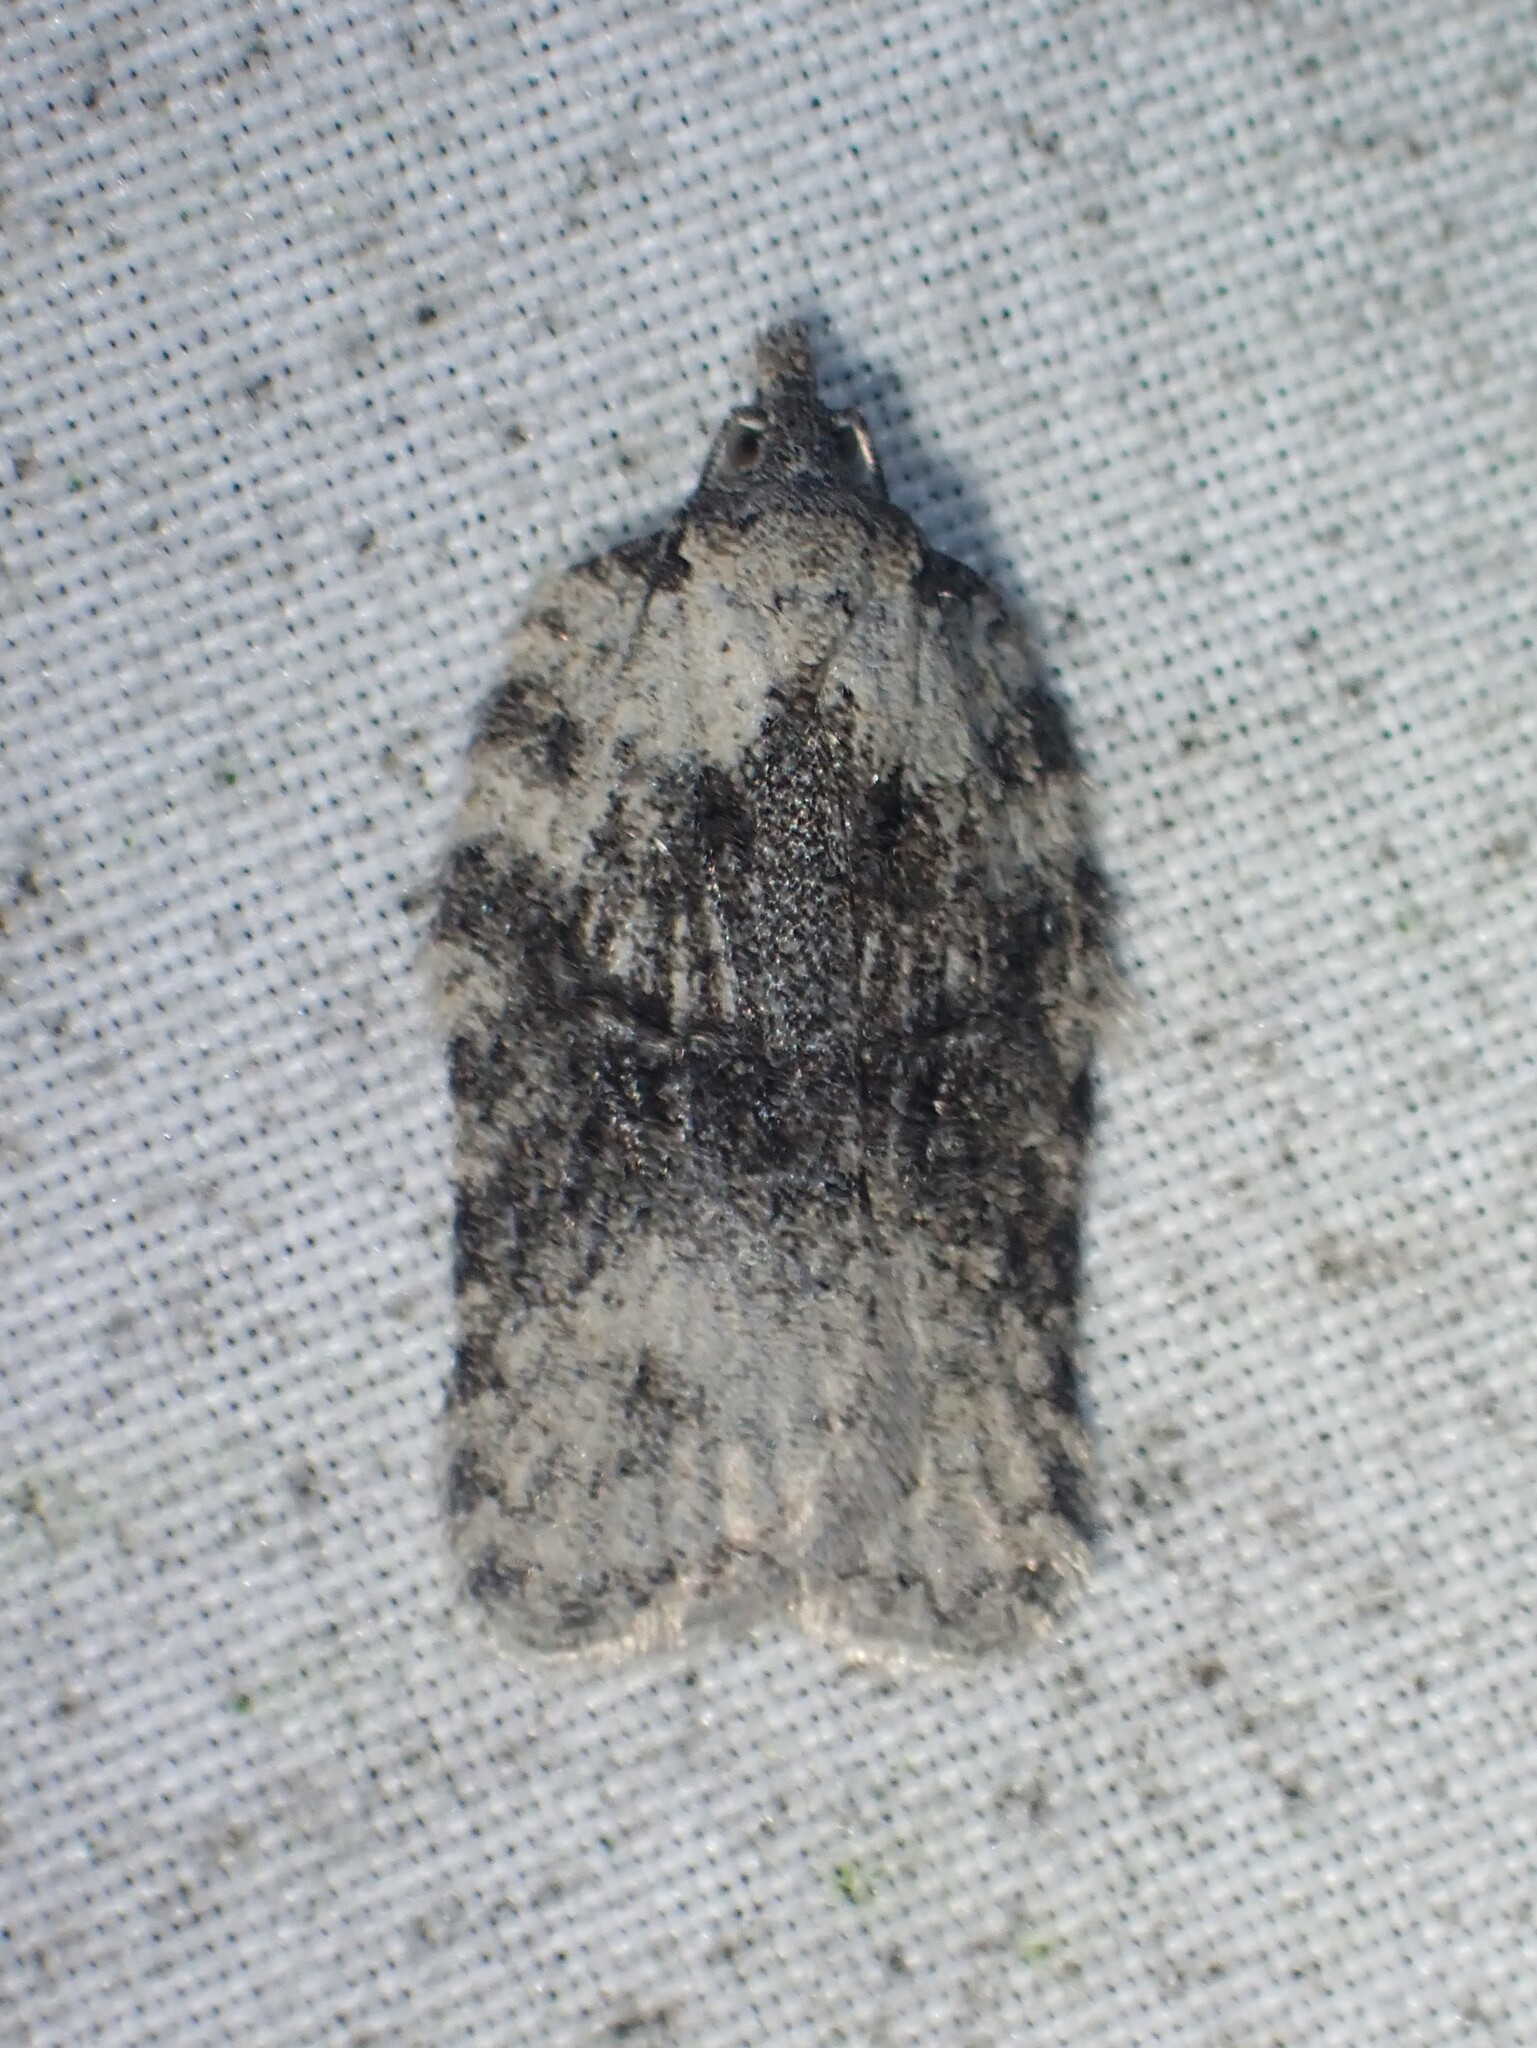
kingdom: Animalia
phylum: Arthropoda
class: Insecta
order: Lepidoptera
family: Tortricidae
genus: Acleris
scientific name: Acleris nigrolinea
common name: Black-lined acleris
